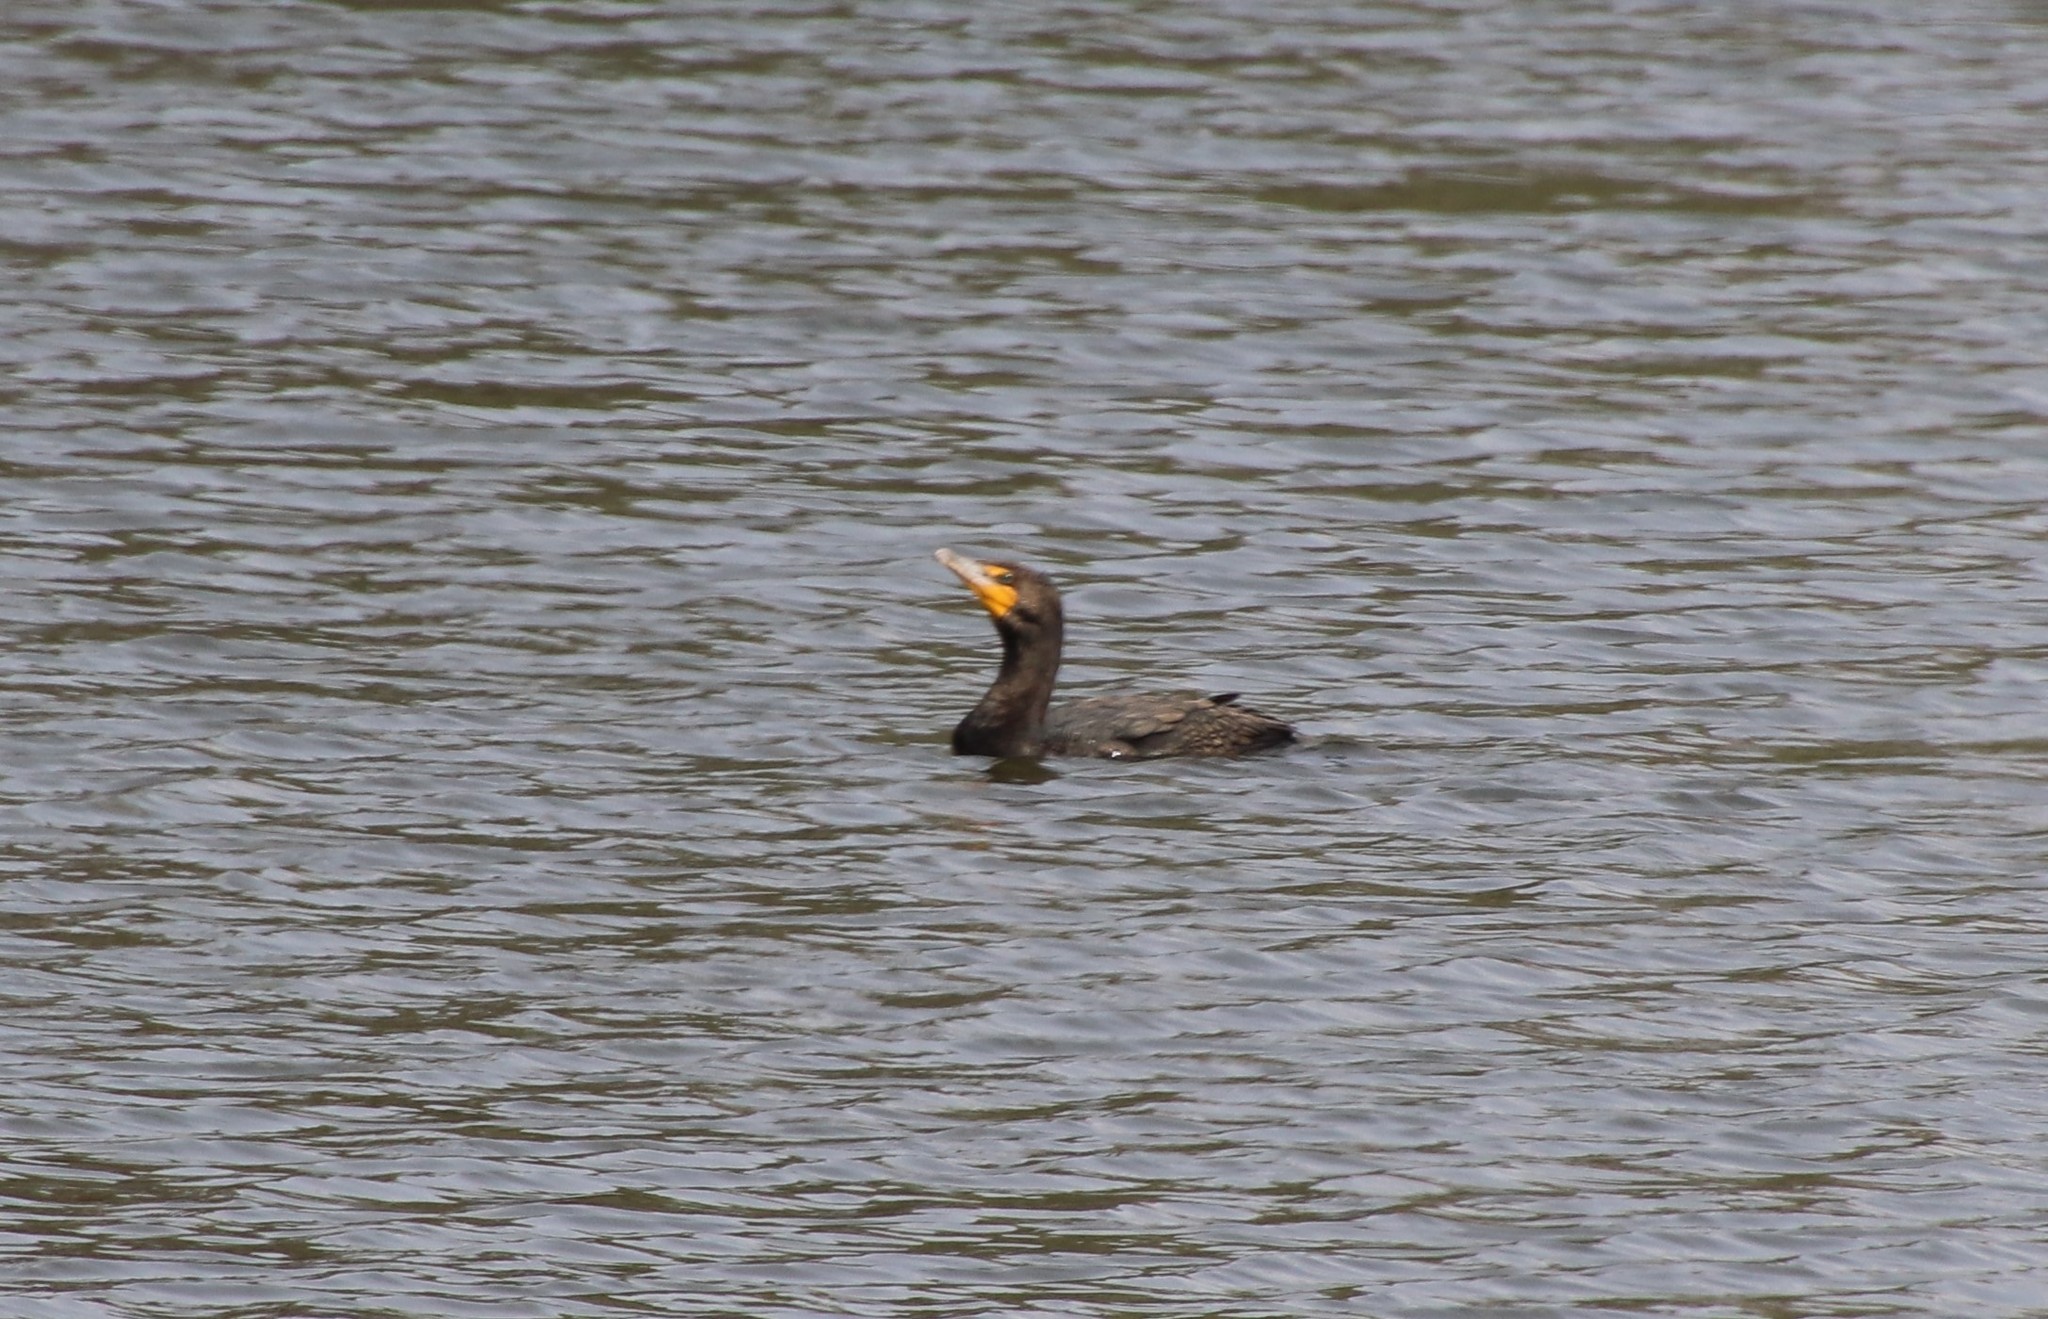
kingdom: Animalia
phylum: Chordata
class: Aves
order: Suliformes
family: Phalacrocoracidae
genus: Phalacrocorax
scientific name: Phalacrocorax auritus
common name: Double-crested cormorant
